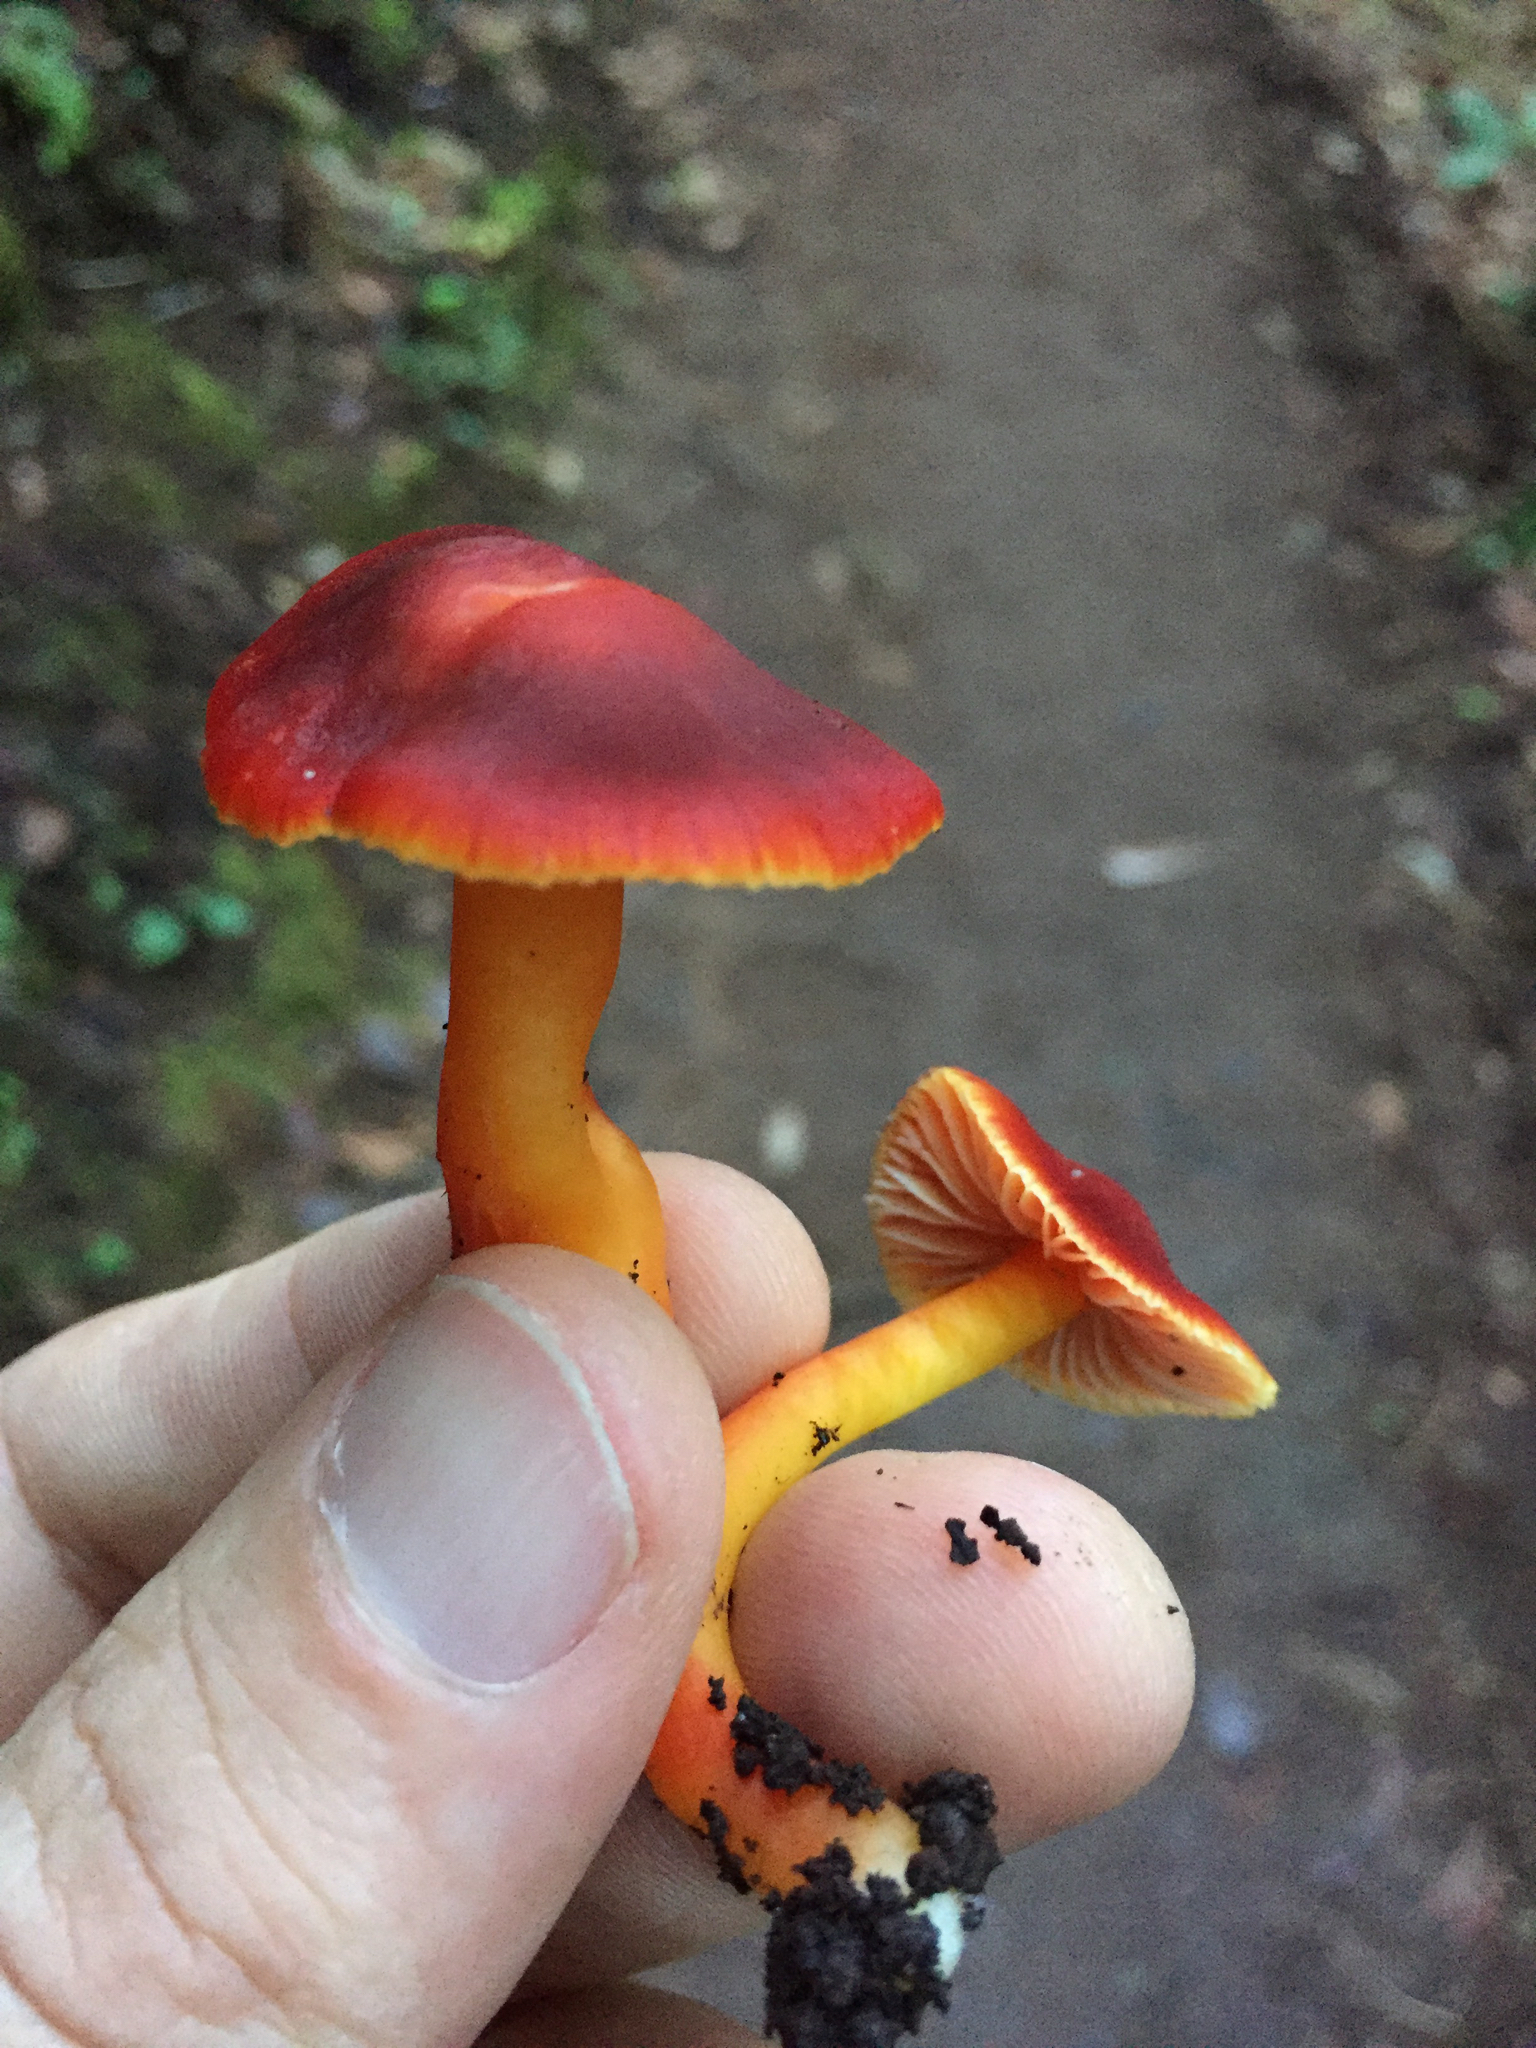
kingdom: Fungi
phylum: Basidiomycota
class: Agaricomycetes
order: Agaricales
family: Hygrophoraceae
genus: Hygrocybe
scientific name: Hygrocybe coccinea
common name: Scarlet hood
